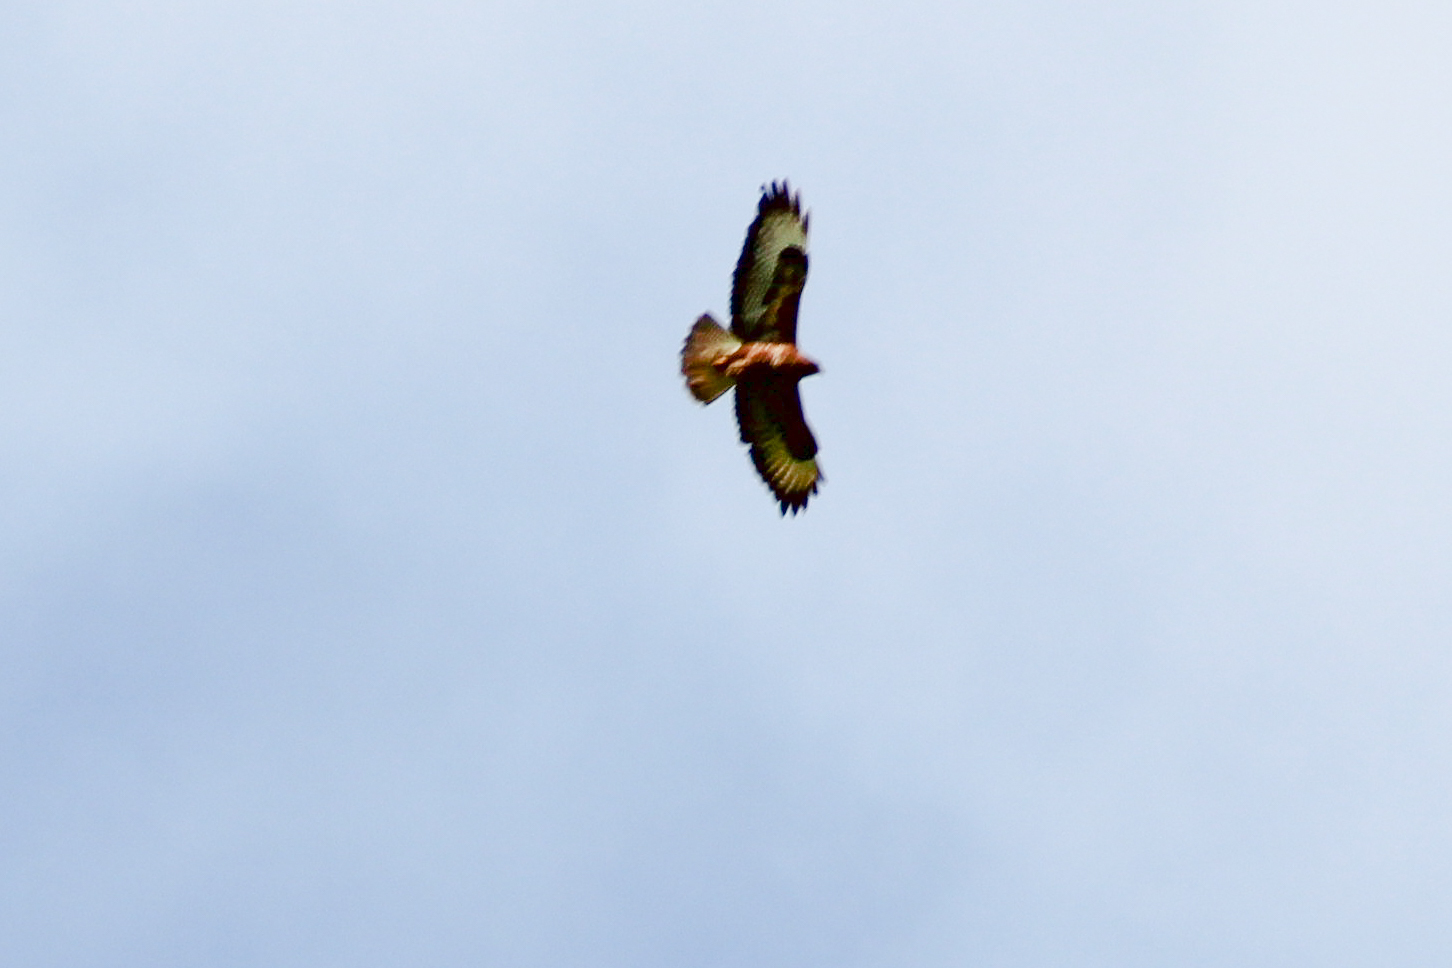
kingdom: Animalia
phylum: Chordata
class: Aves
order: Accipitriformes
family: Accipitridae
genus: Buteo
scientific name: Buteo buteo
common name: Common buzzard
